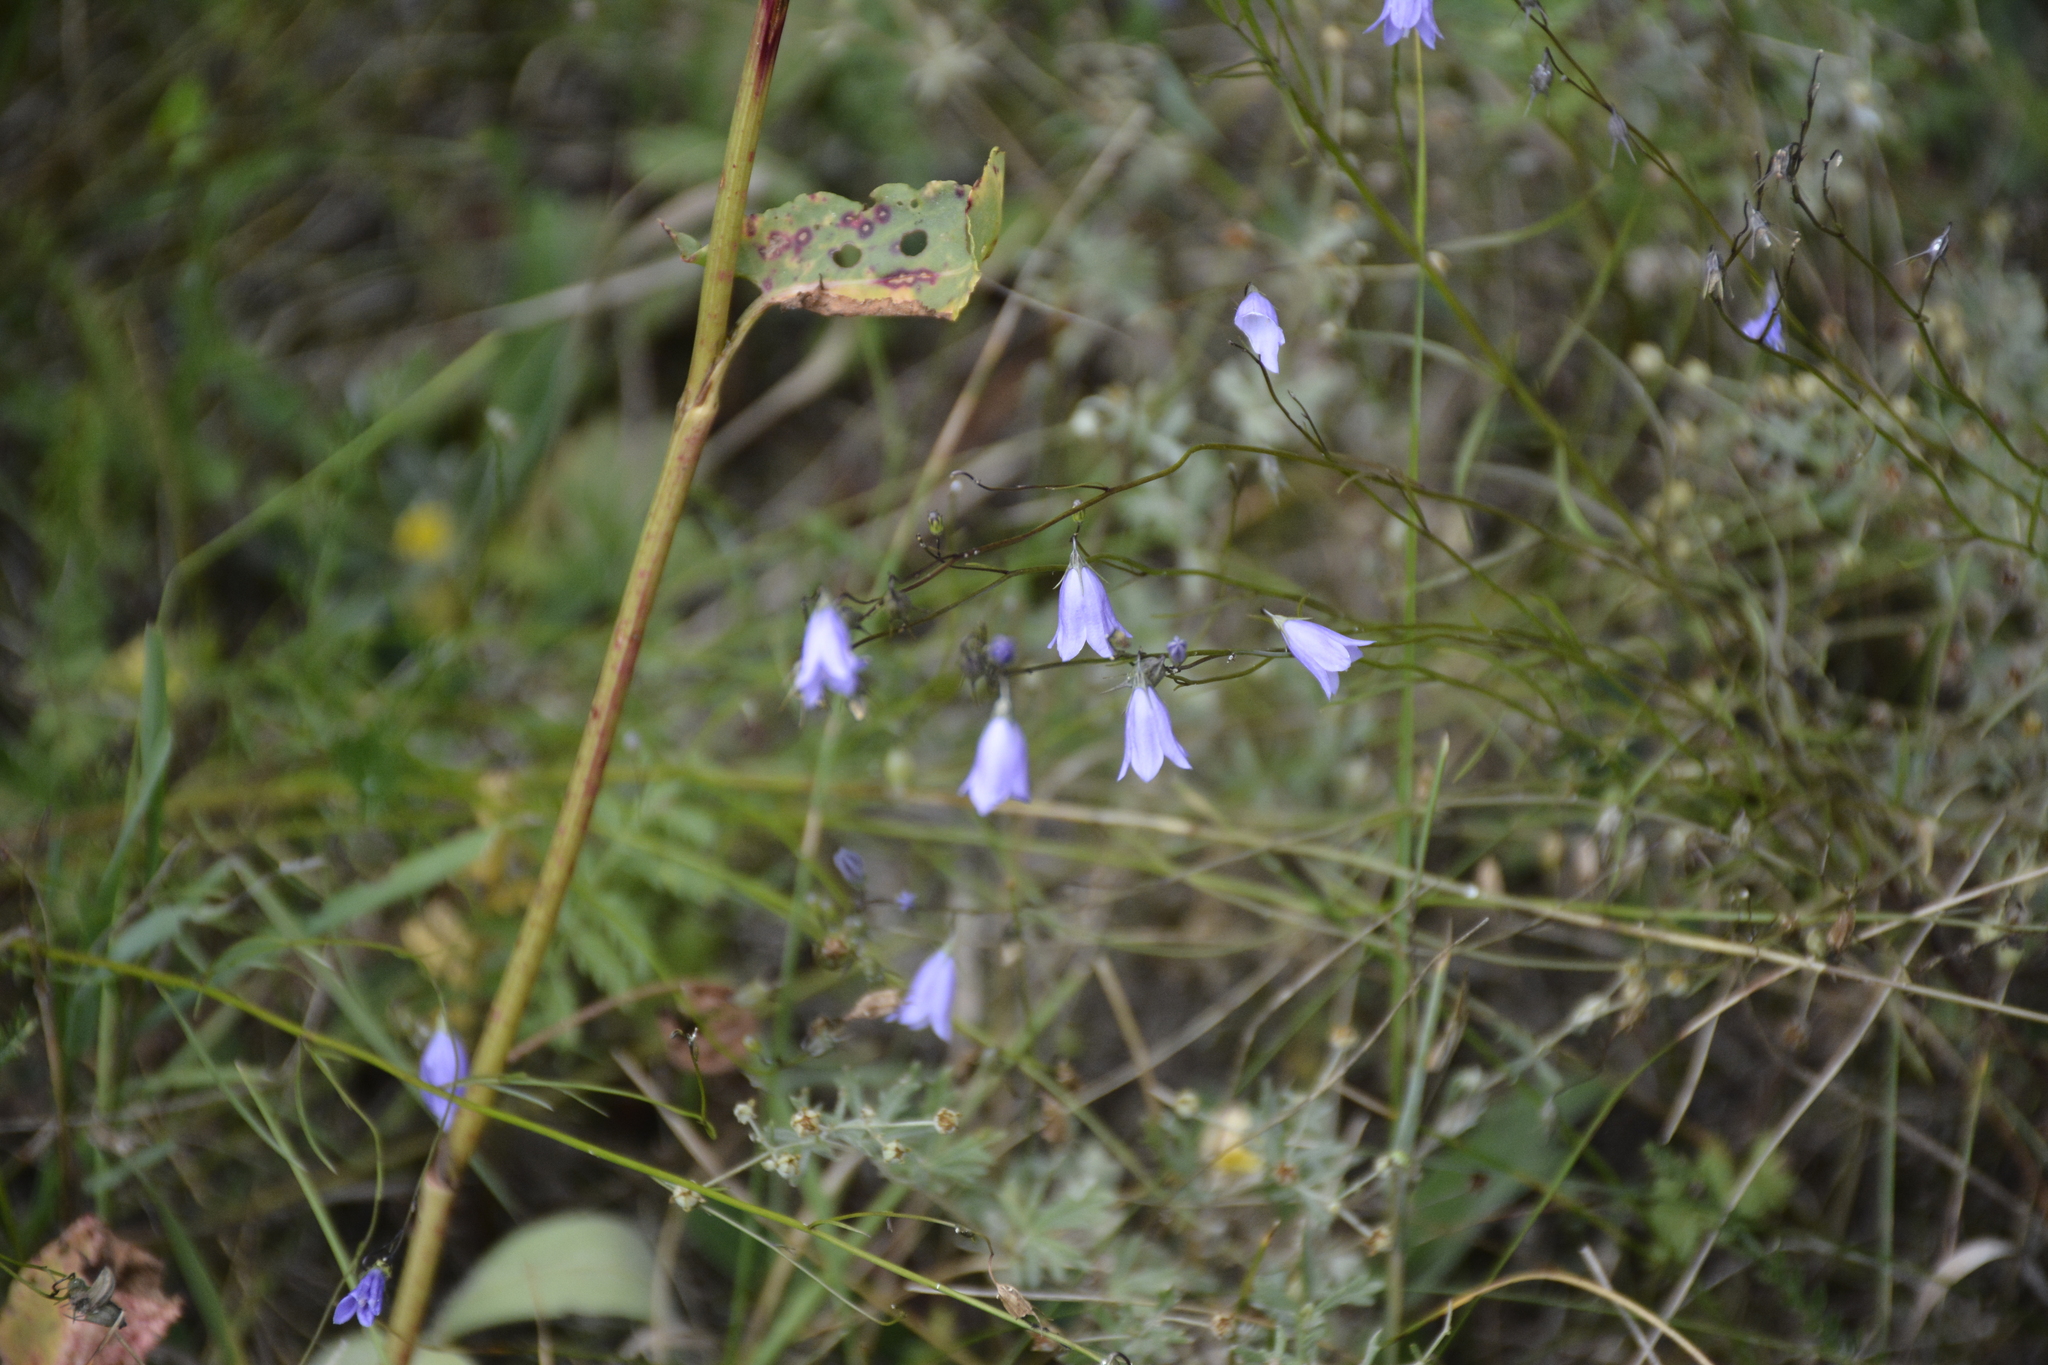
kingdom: Plantae
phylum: Tracheophyta
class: Magnoliopsida
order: Asterales
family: Campanulaceae
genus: Campanula
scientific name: Campanula rotundifolia
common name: Harebell
